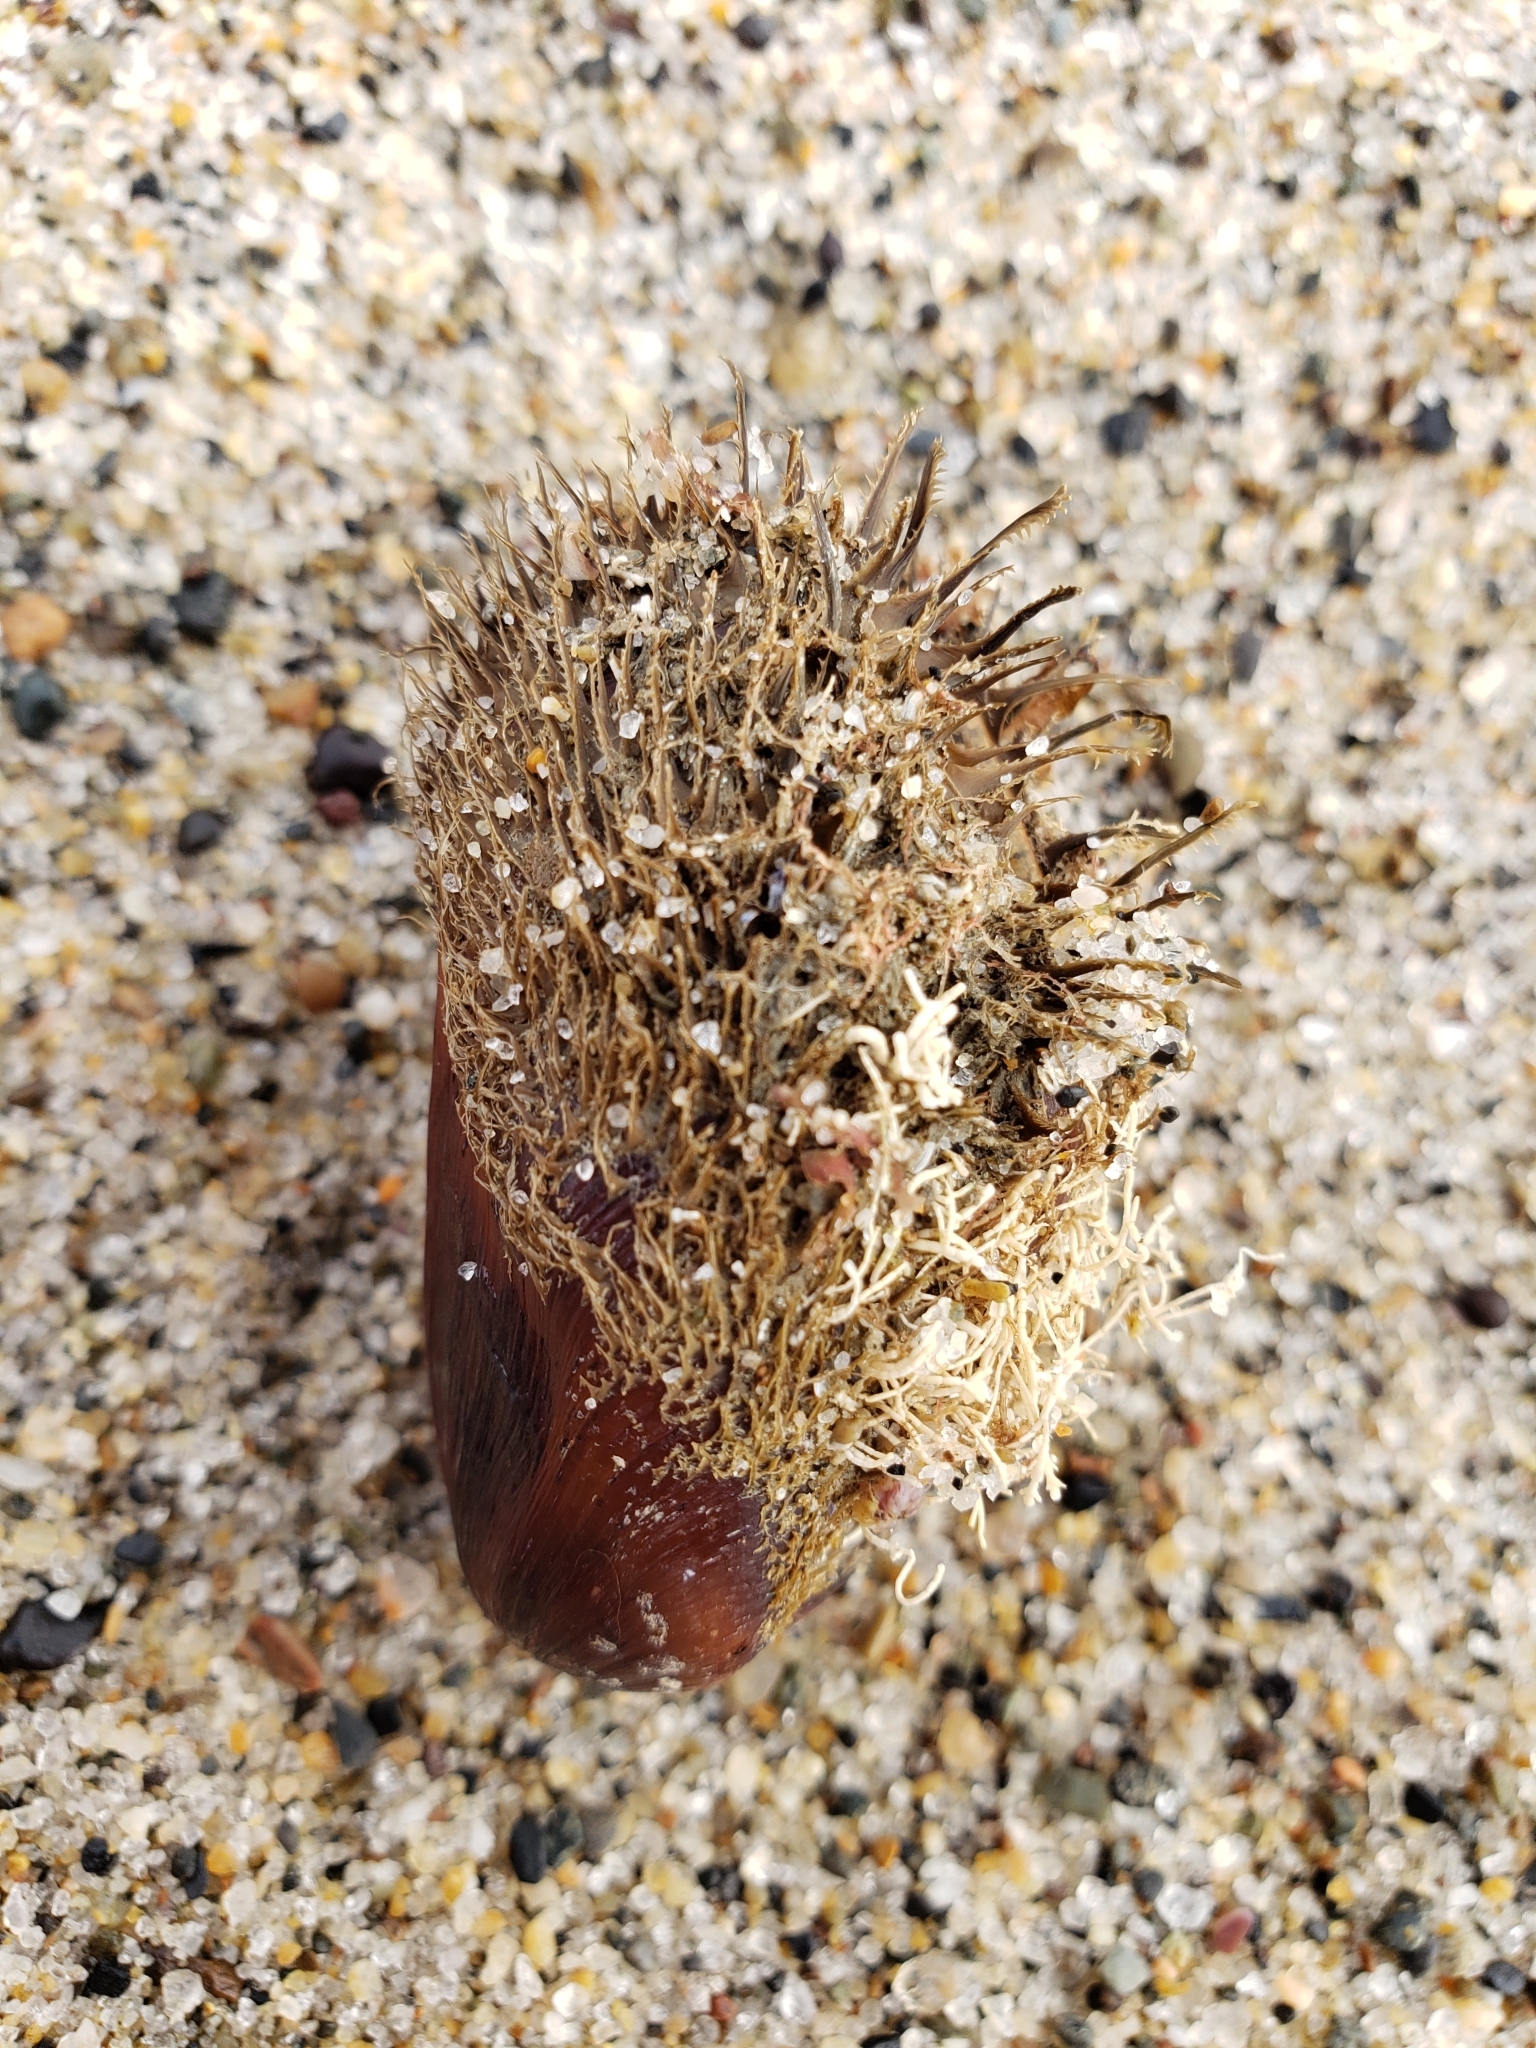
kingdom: Animalia
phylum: Mollusca
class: Bivalvia
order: Mytilida
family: Mytilidae
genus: Modiolus
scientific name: Modiolus capax
